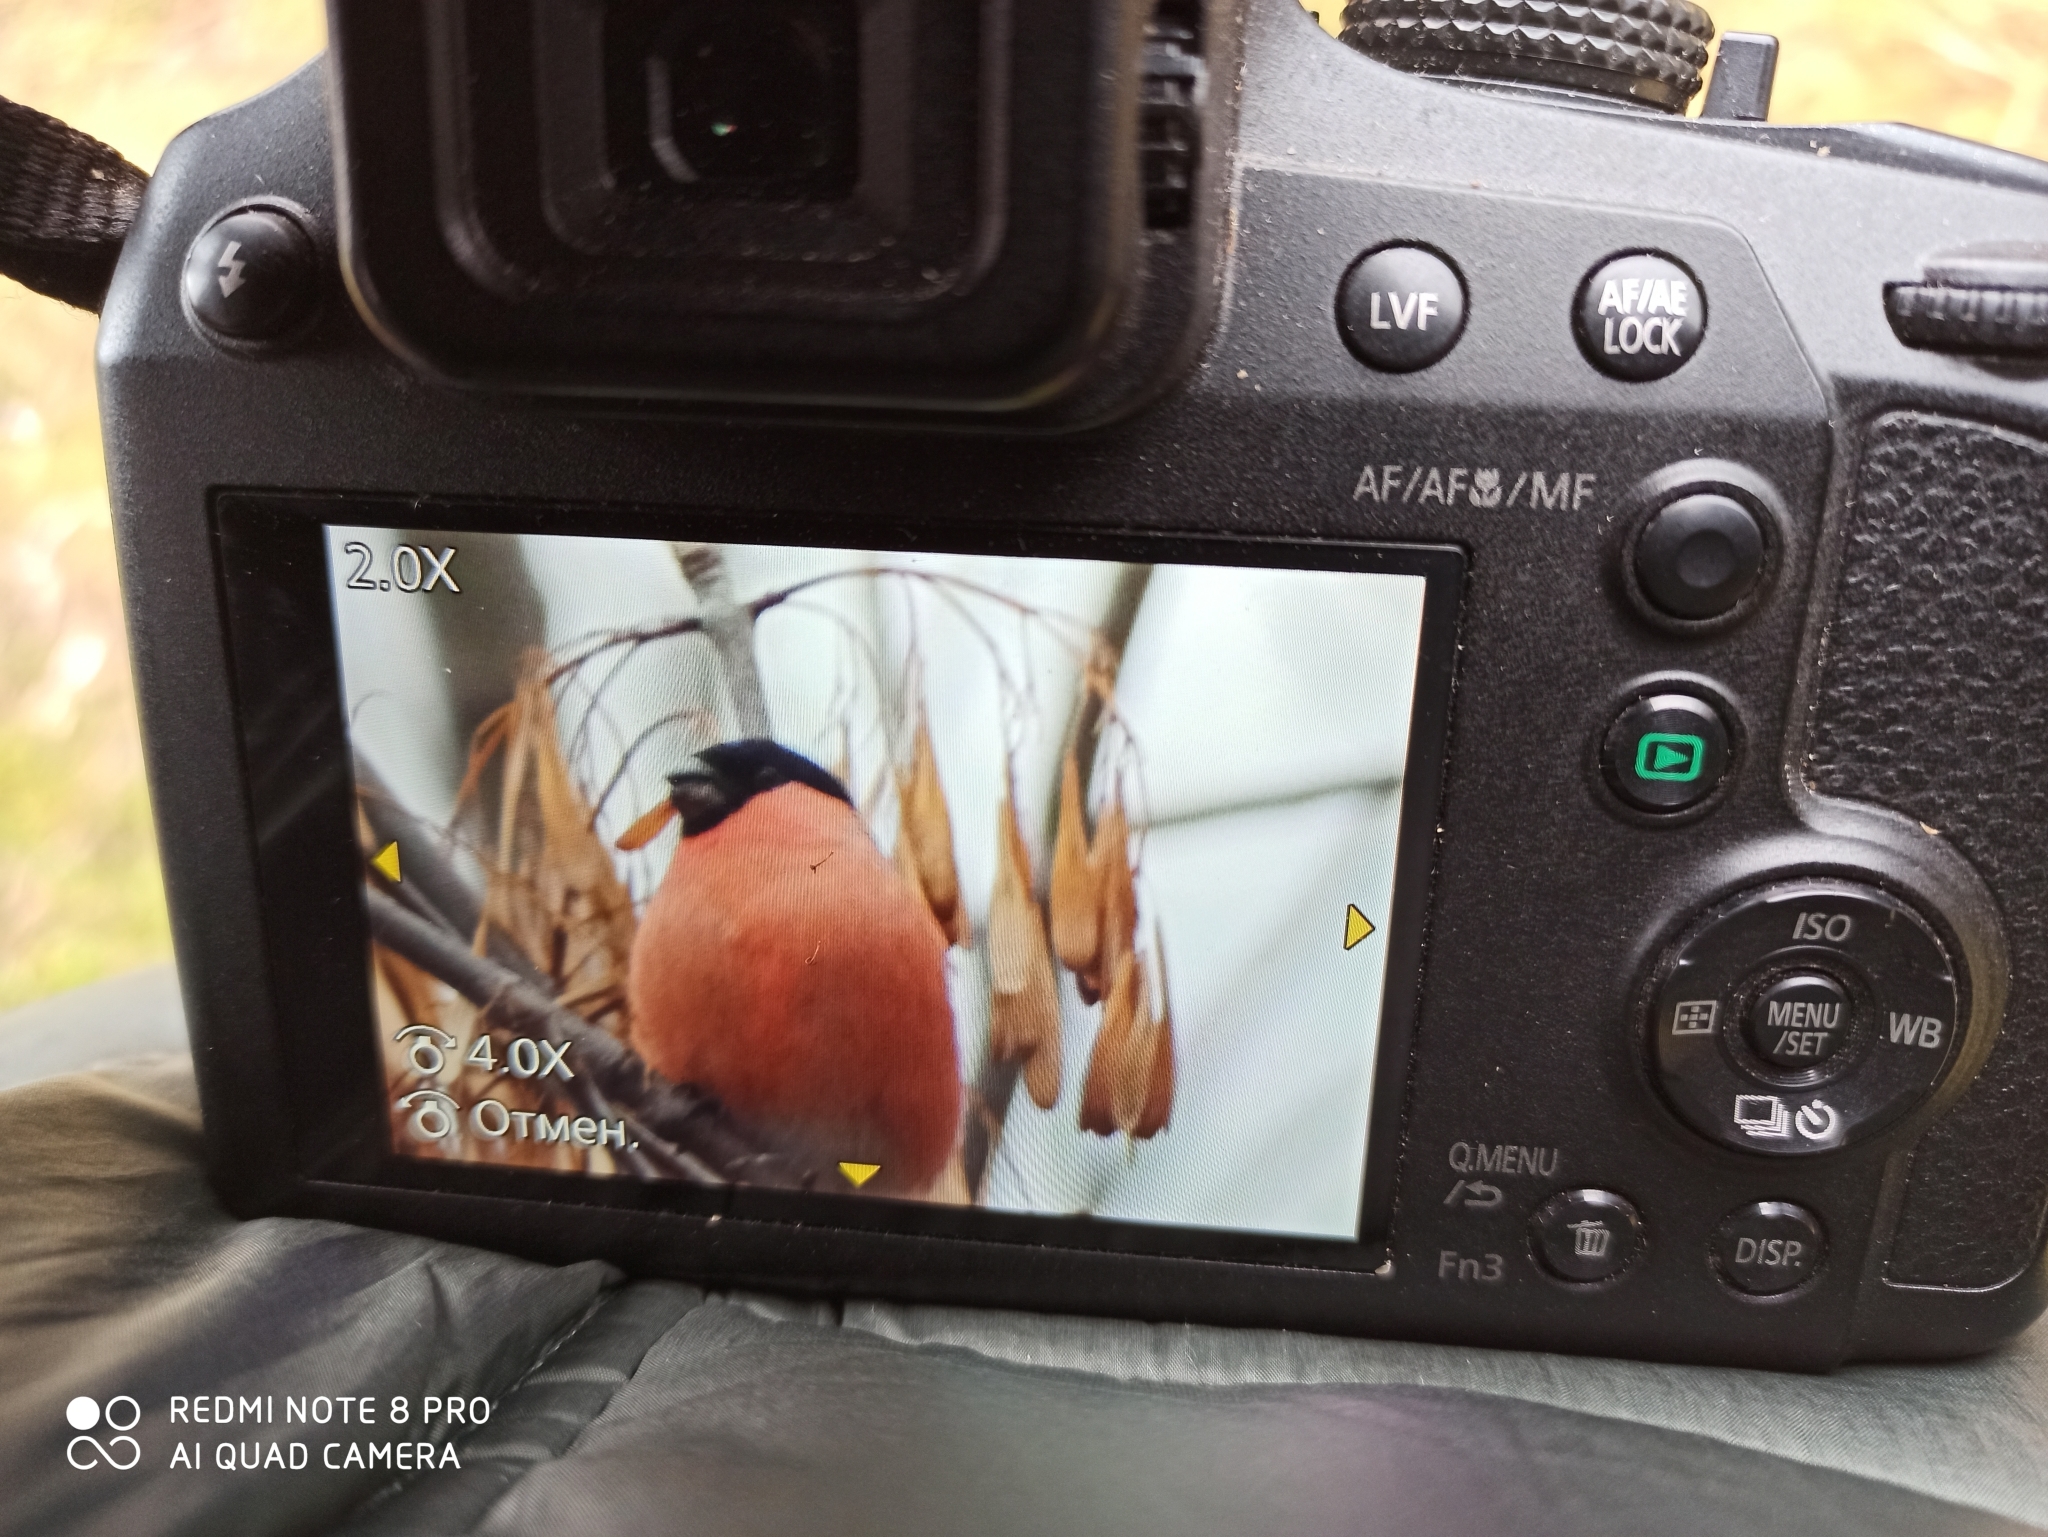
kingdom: Animalia
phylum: Chordata
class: Aves
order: Passeriformes
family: Fringillidae
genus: Pyrrhula
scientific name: Pyrrhula pyrrhula
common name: Eurasian bullfinch
